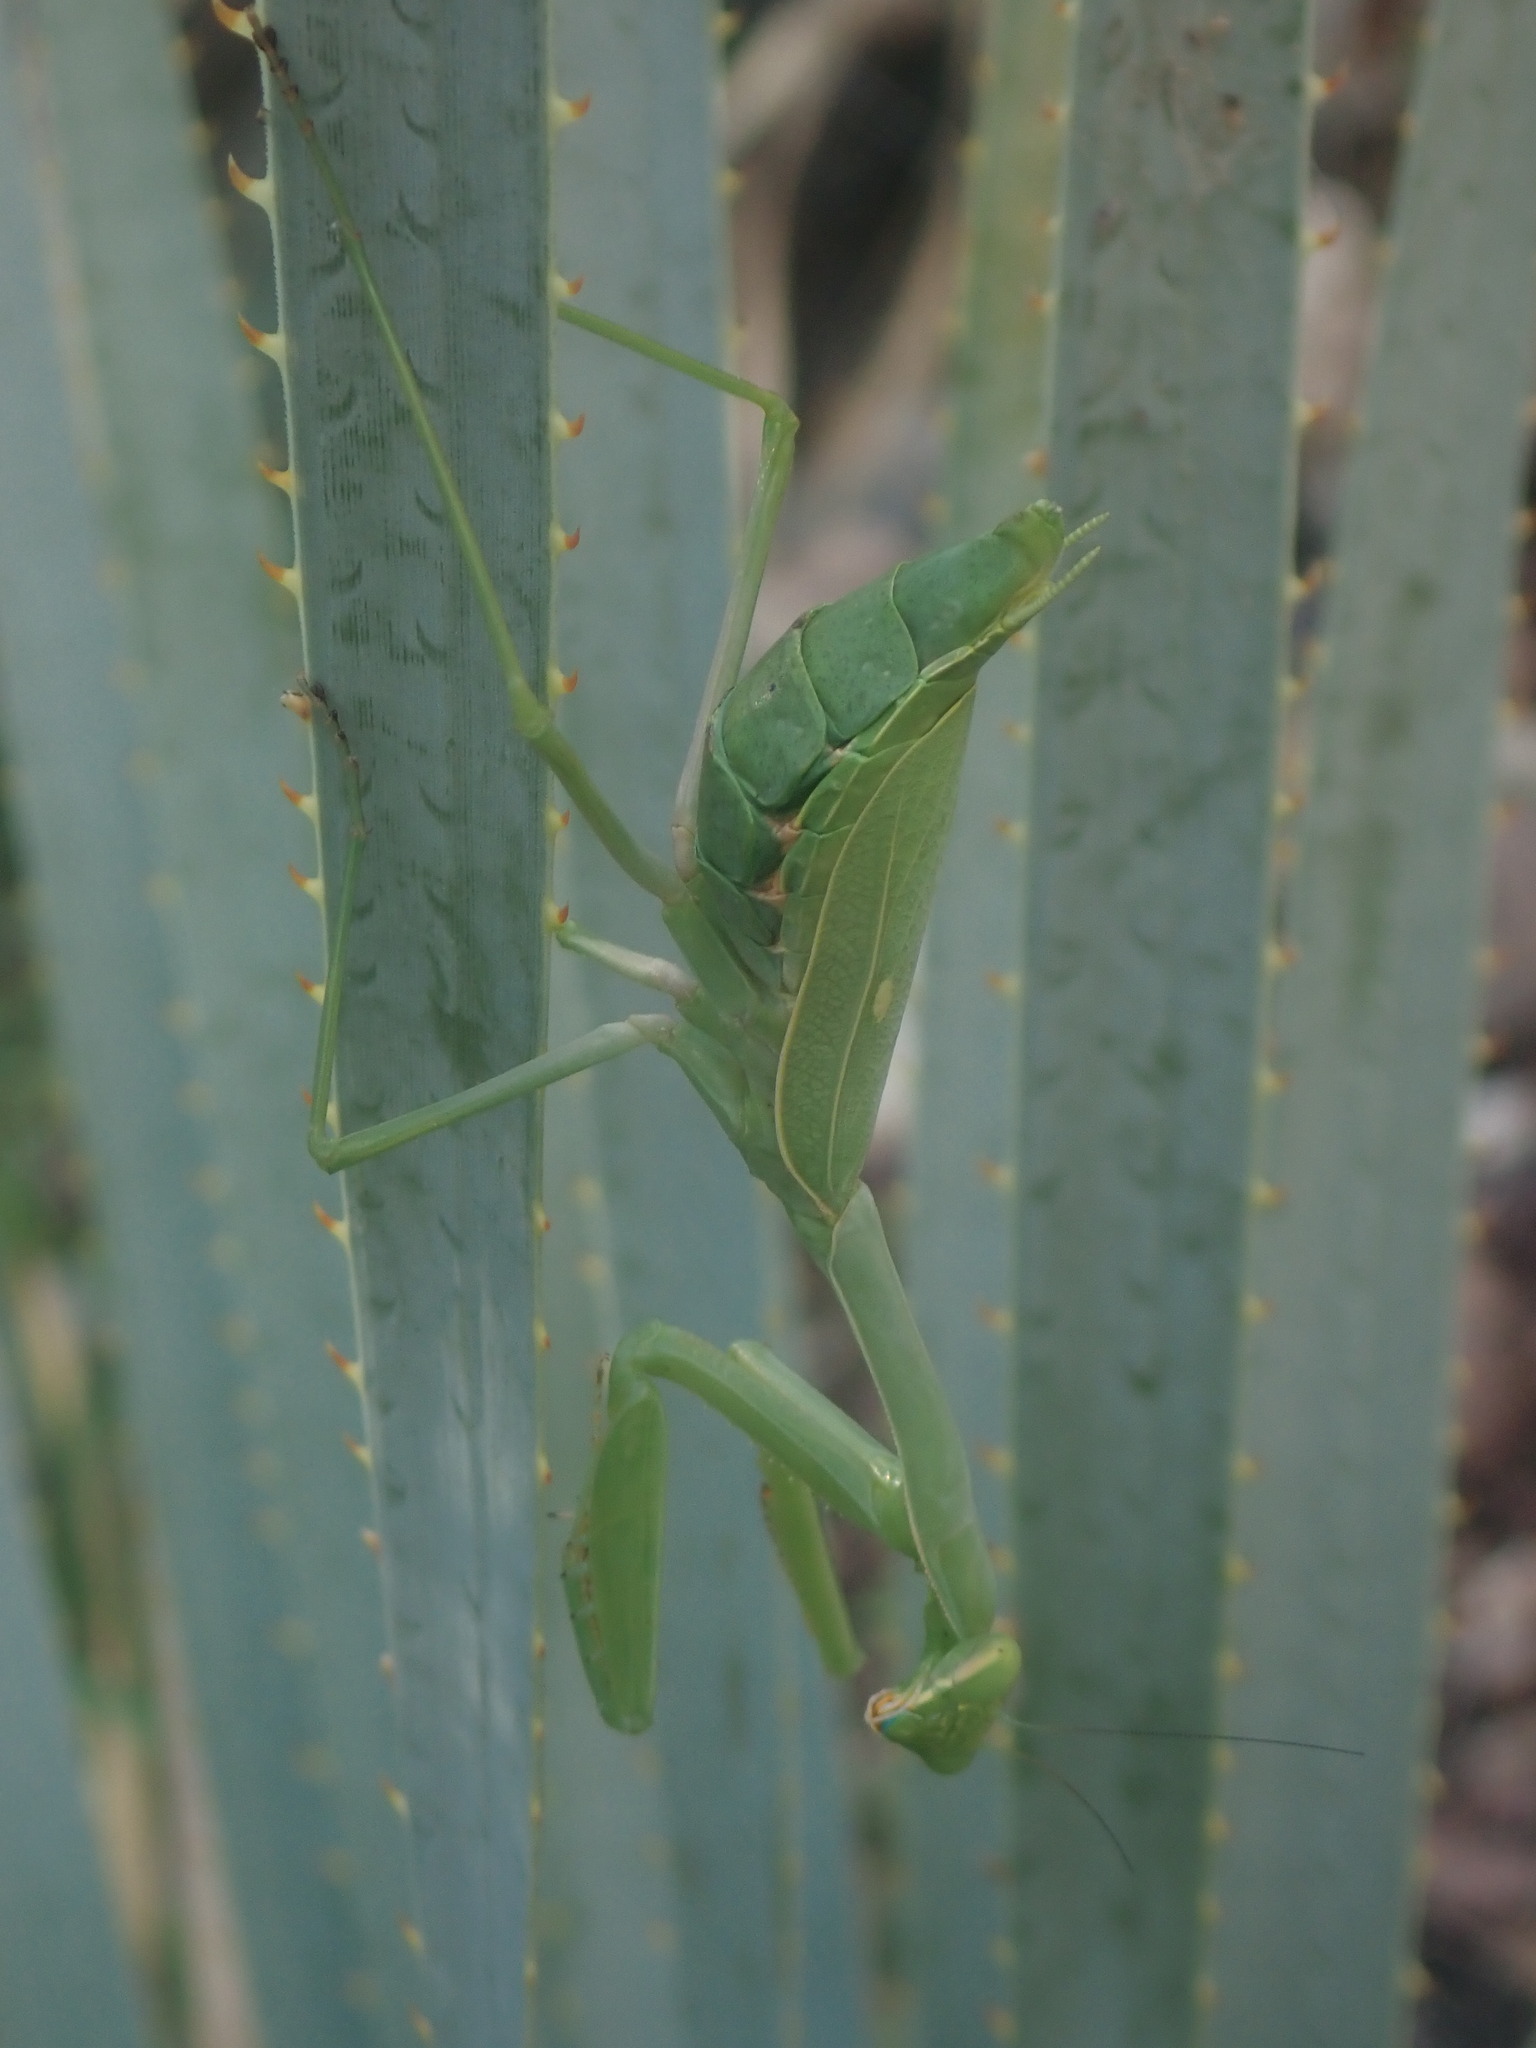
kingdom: Animalia
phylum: Arthropoda
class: Insecta
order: Mantodea
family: Mantidae
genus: Stagmomantis
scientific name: Stagmomantis limbata
